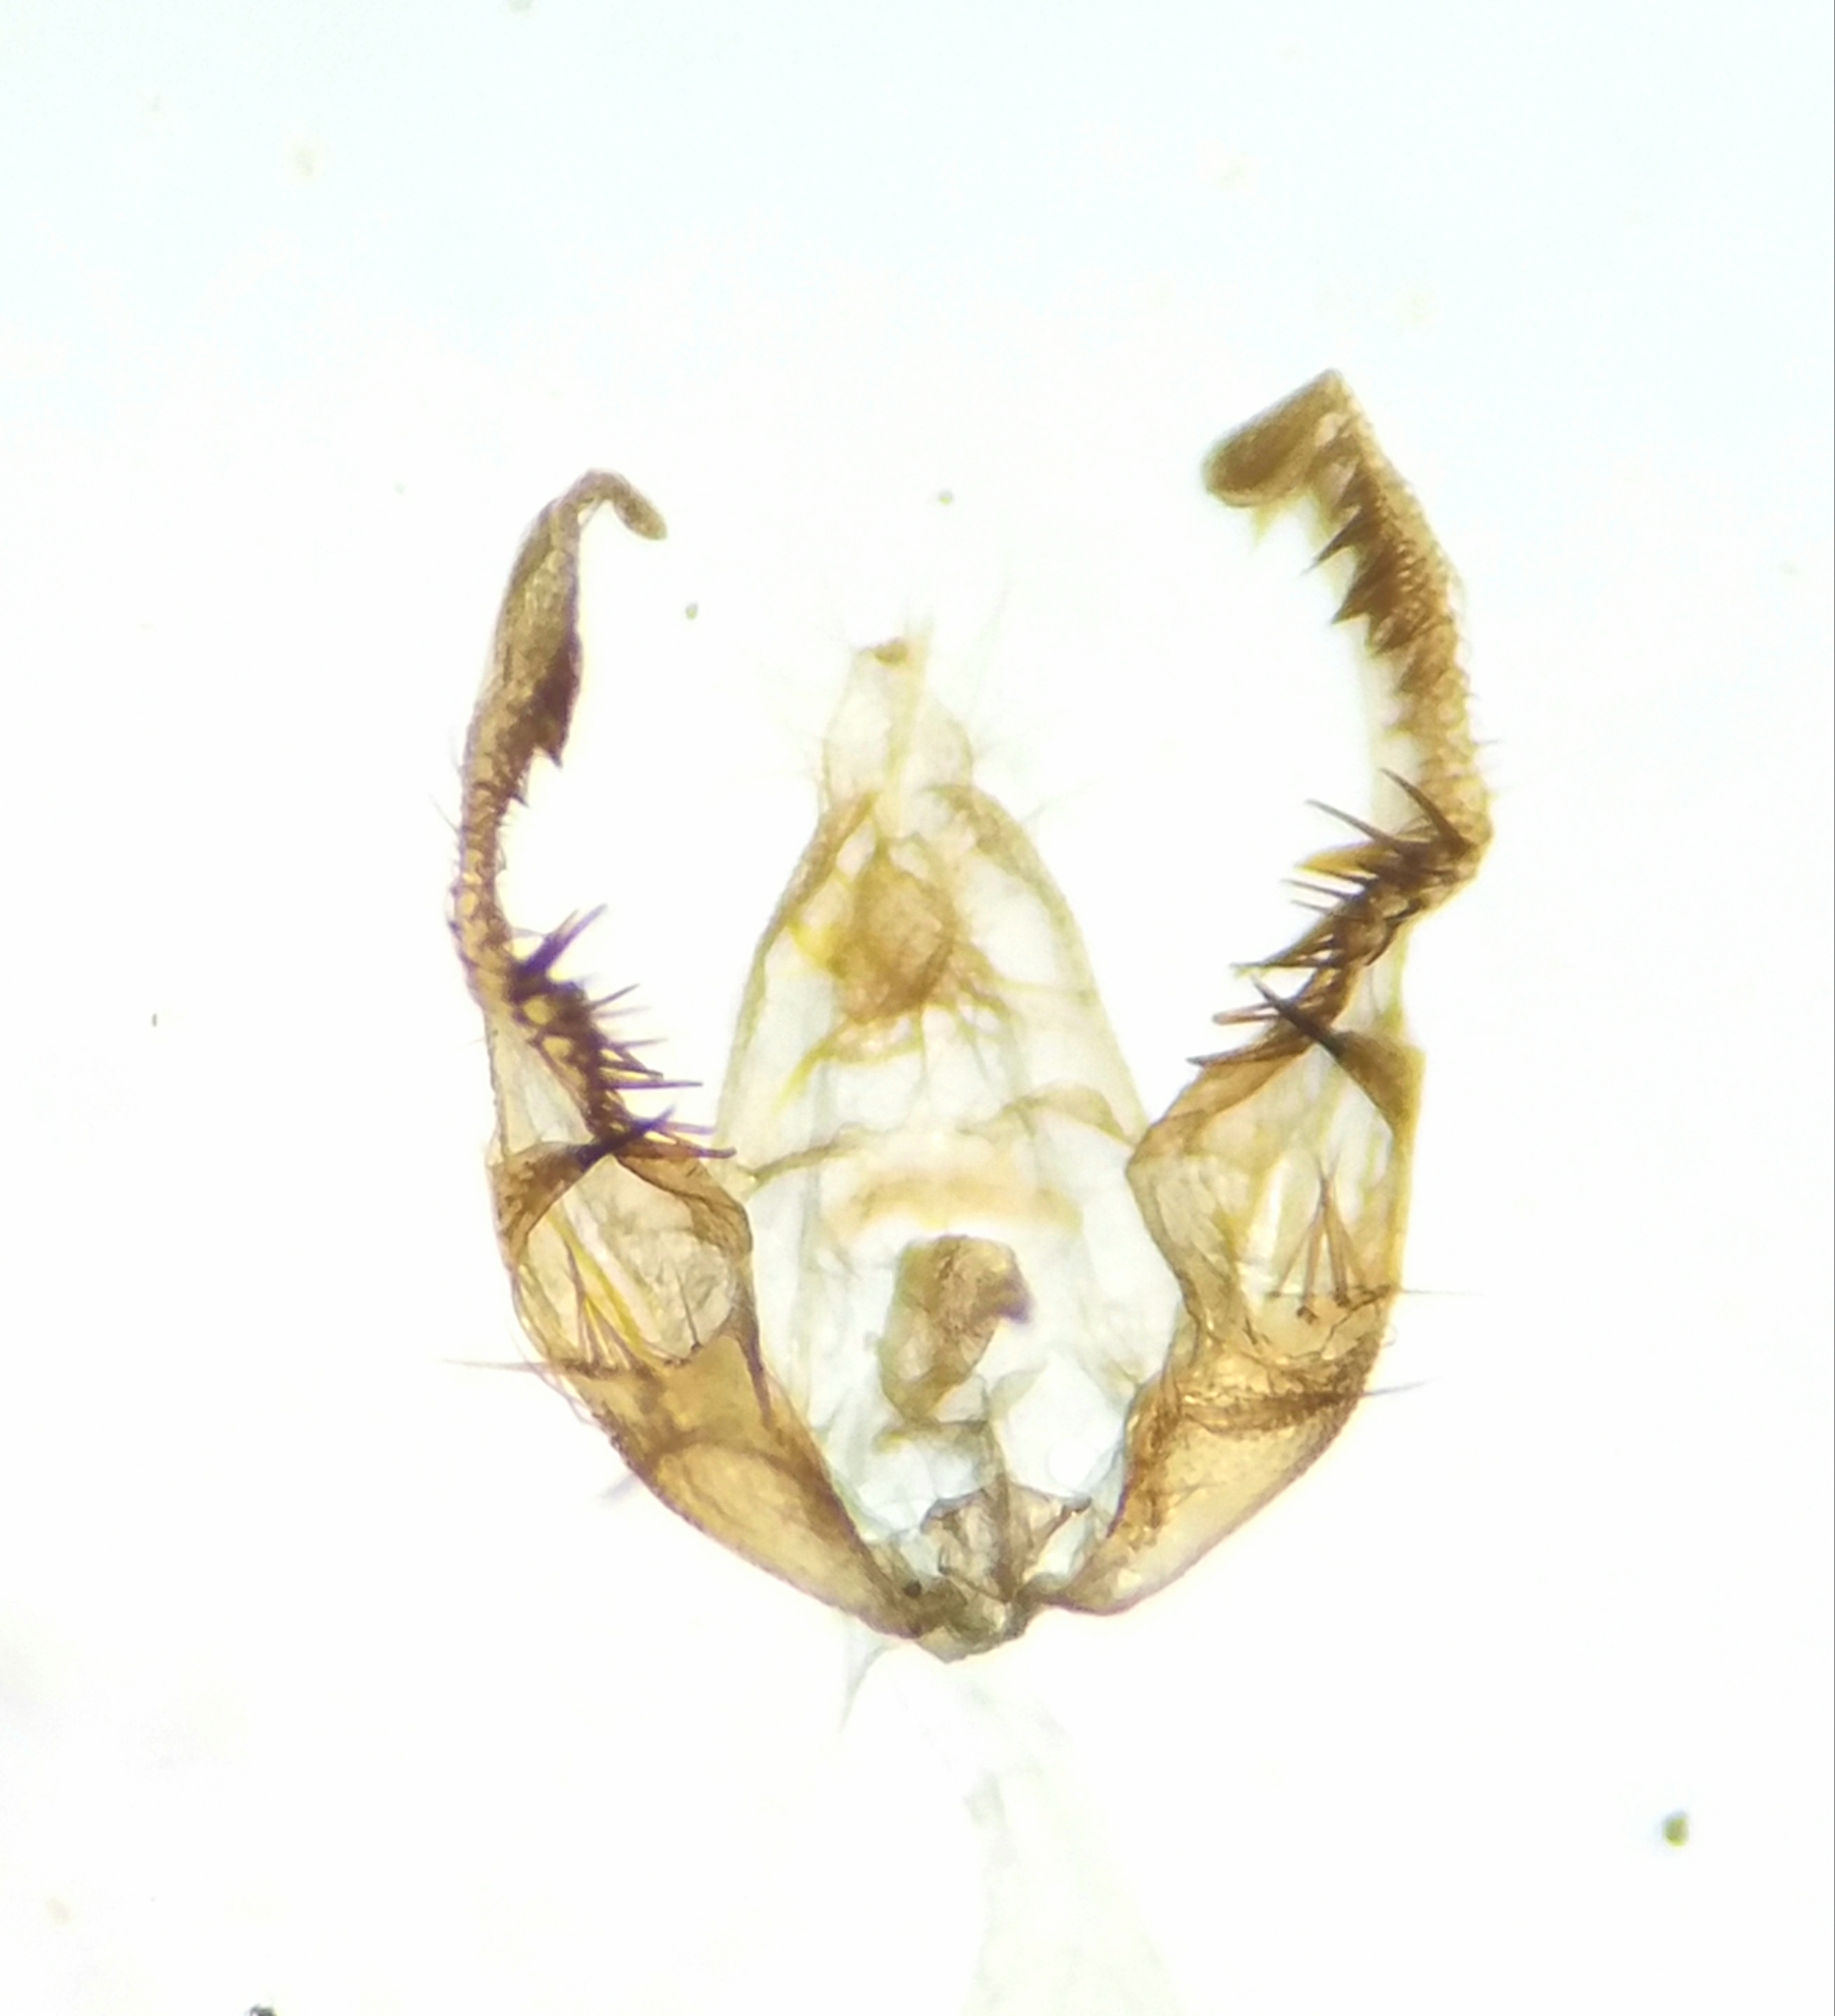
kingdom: Animalia
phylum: Arthropoda
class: Insecta
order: Lepidoptera
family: Tortricidae
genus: Olethreutes
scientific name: Olethreutes diallacta
